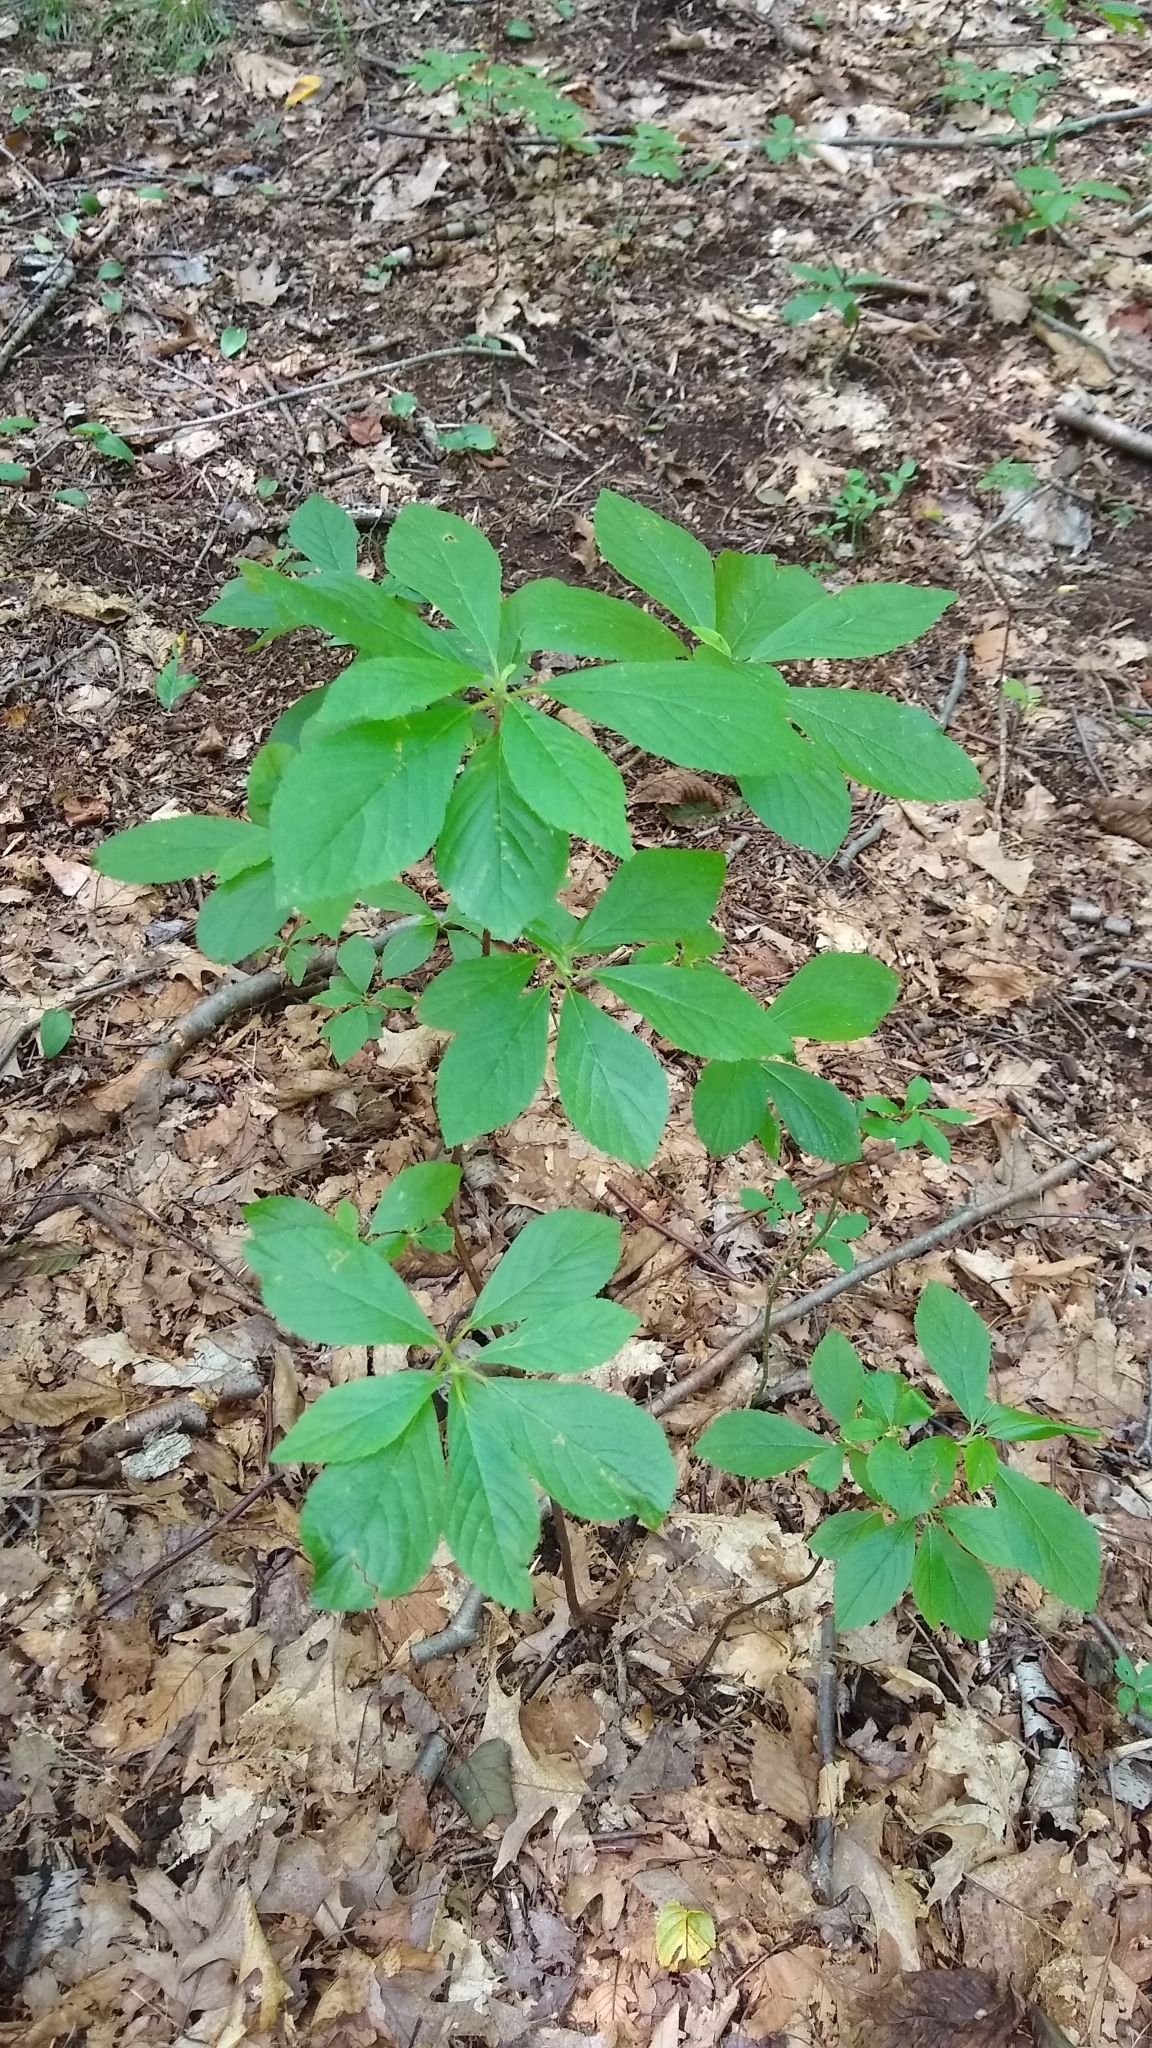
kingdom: Plantae
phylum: Tracheophyta
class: Magnoliopsida
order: Ericales
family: Clethraceae
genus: Clethra
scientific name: Clethra alnifolia
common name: Sweet pepperbush
